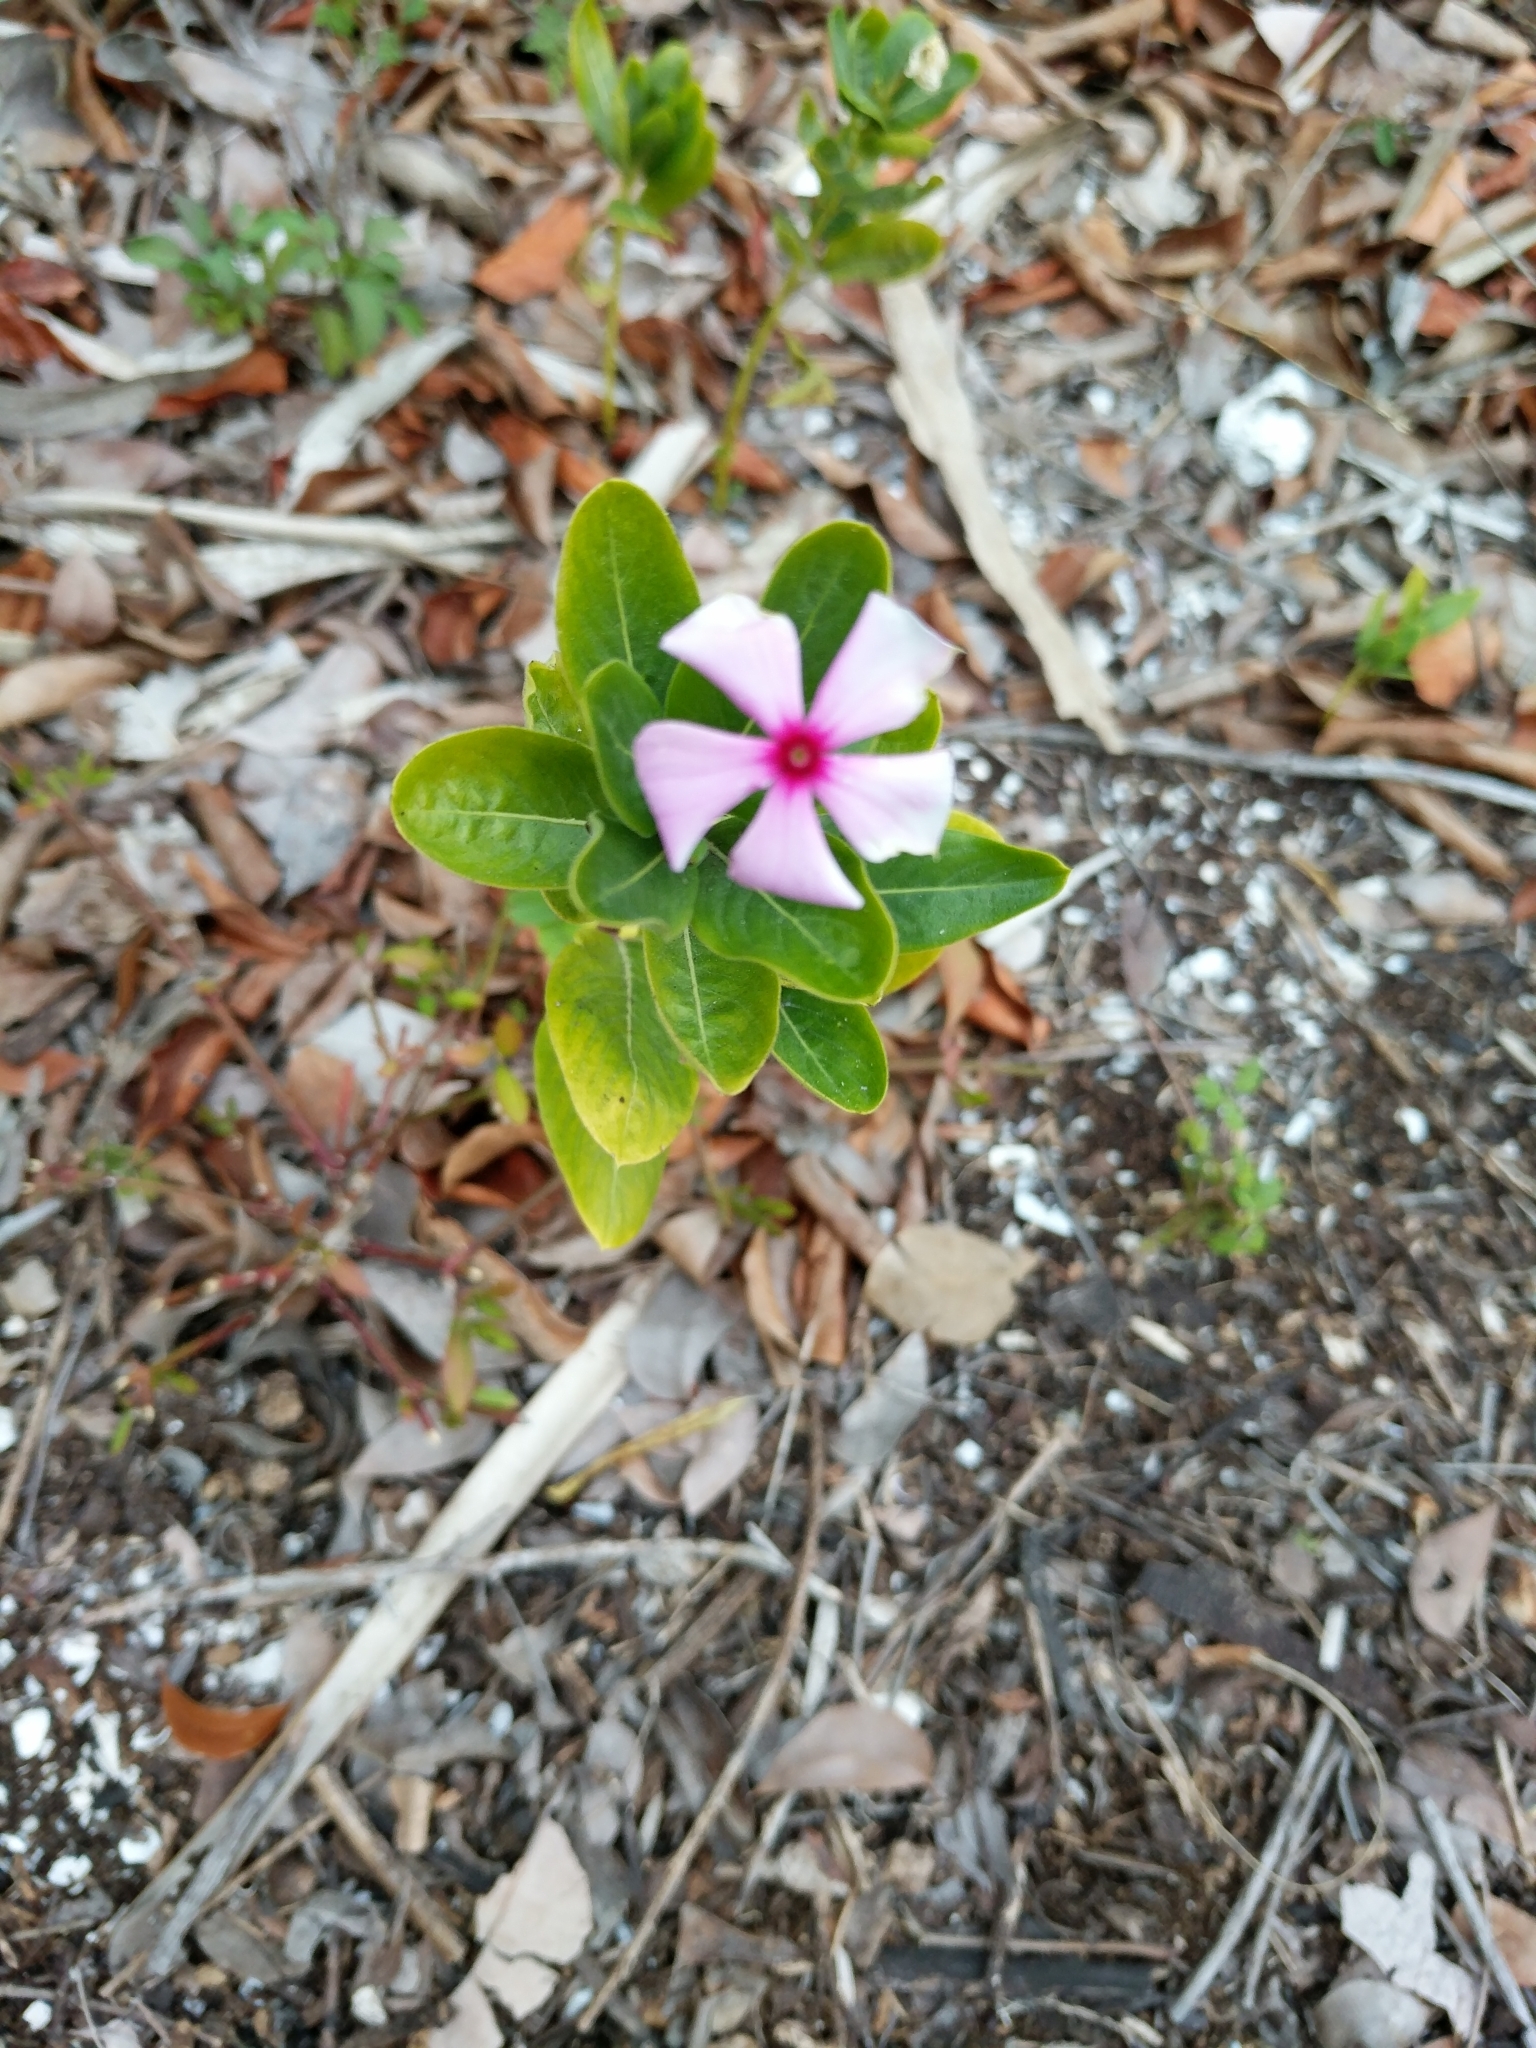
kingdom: Plantae
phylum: Tracheophyta
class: Magnoliopsida
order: Gentianales
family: Apocynaceae
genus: Catharanthus
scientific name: Catharanthus roseus
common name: Madagascar periwinkle
